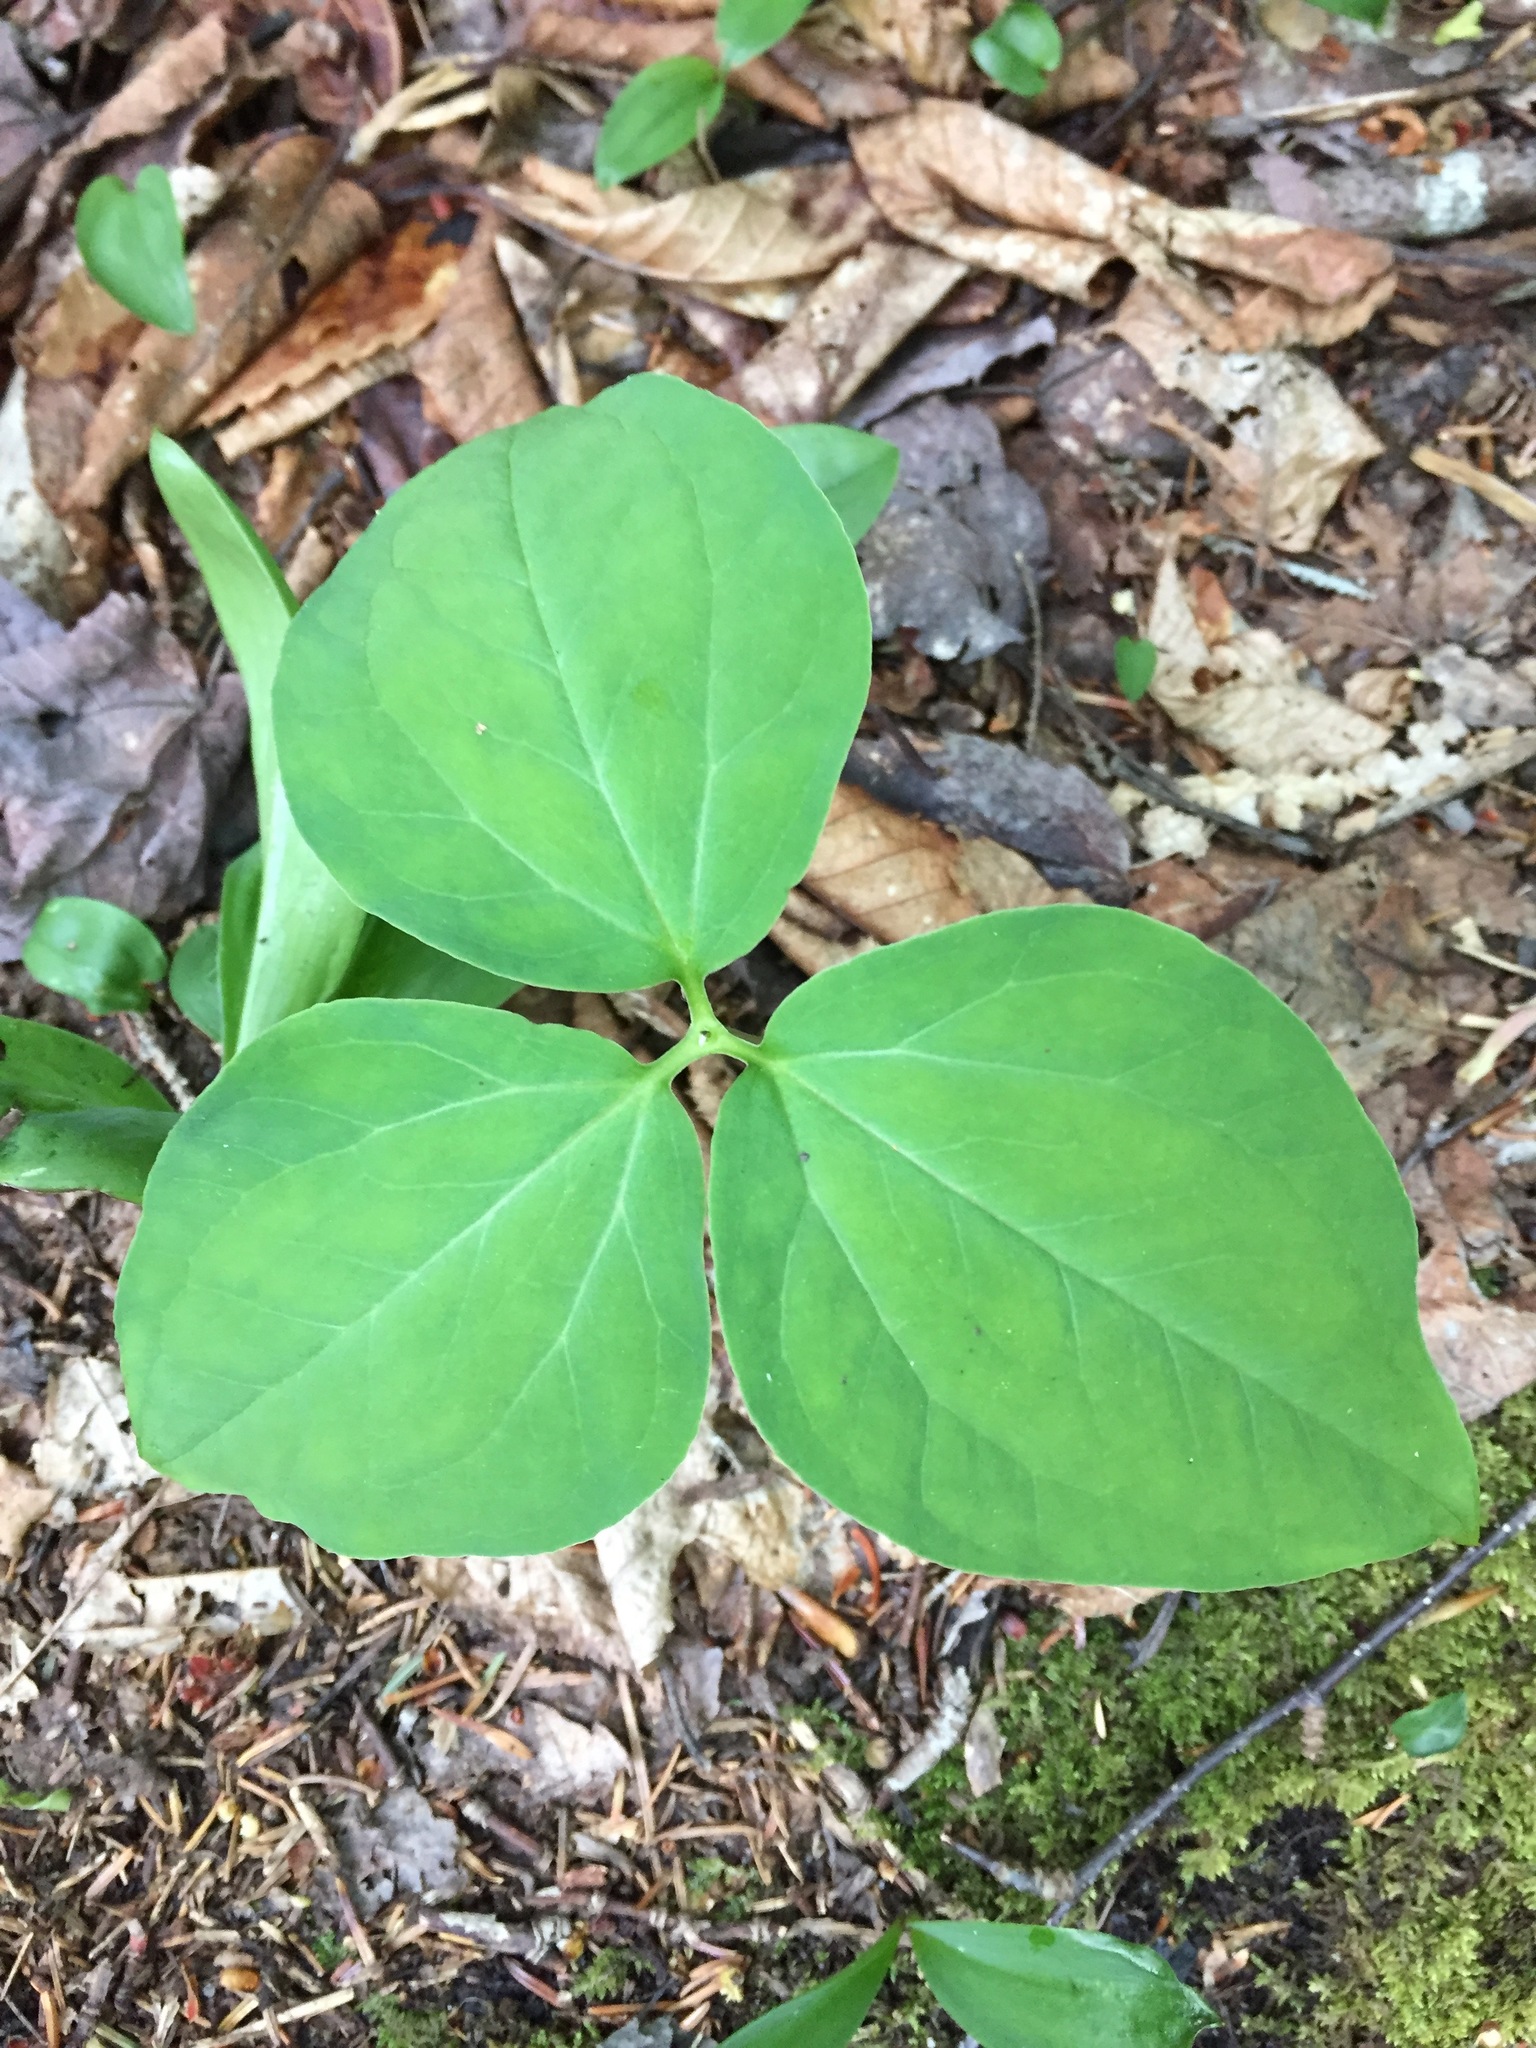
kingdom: Plantae
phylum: Tracheophyta
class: Liliopsida
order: Liliales
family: Melanthiaceae
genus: Trillium
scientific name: Trillium undulatum
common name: Paint trillium
